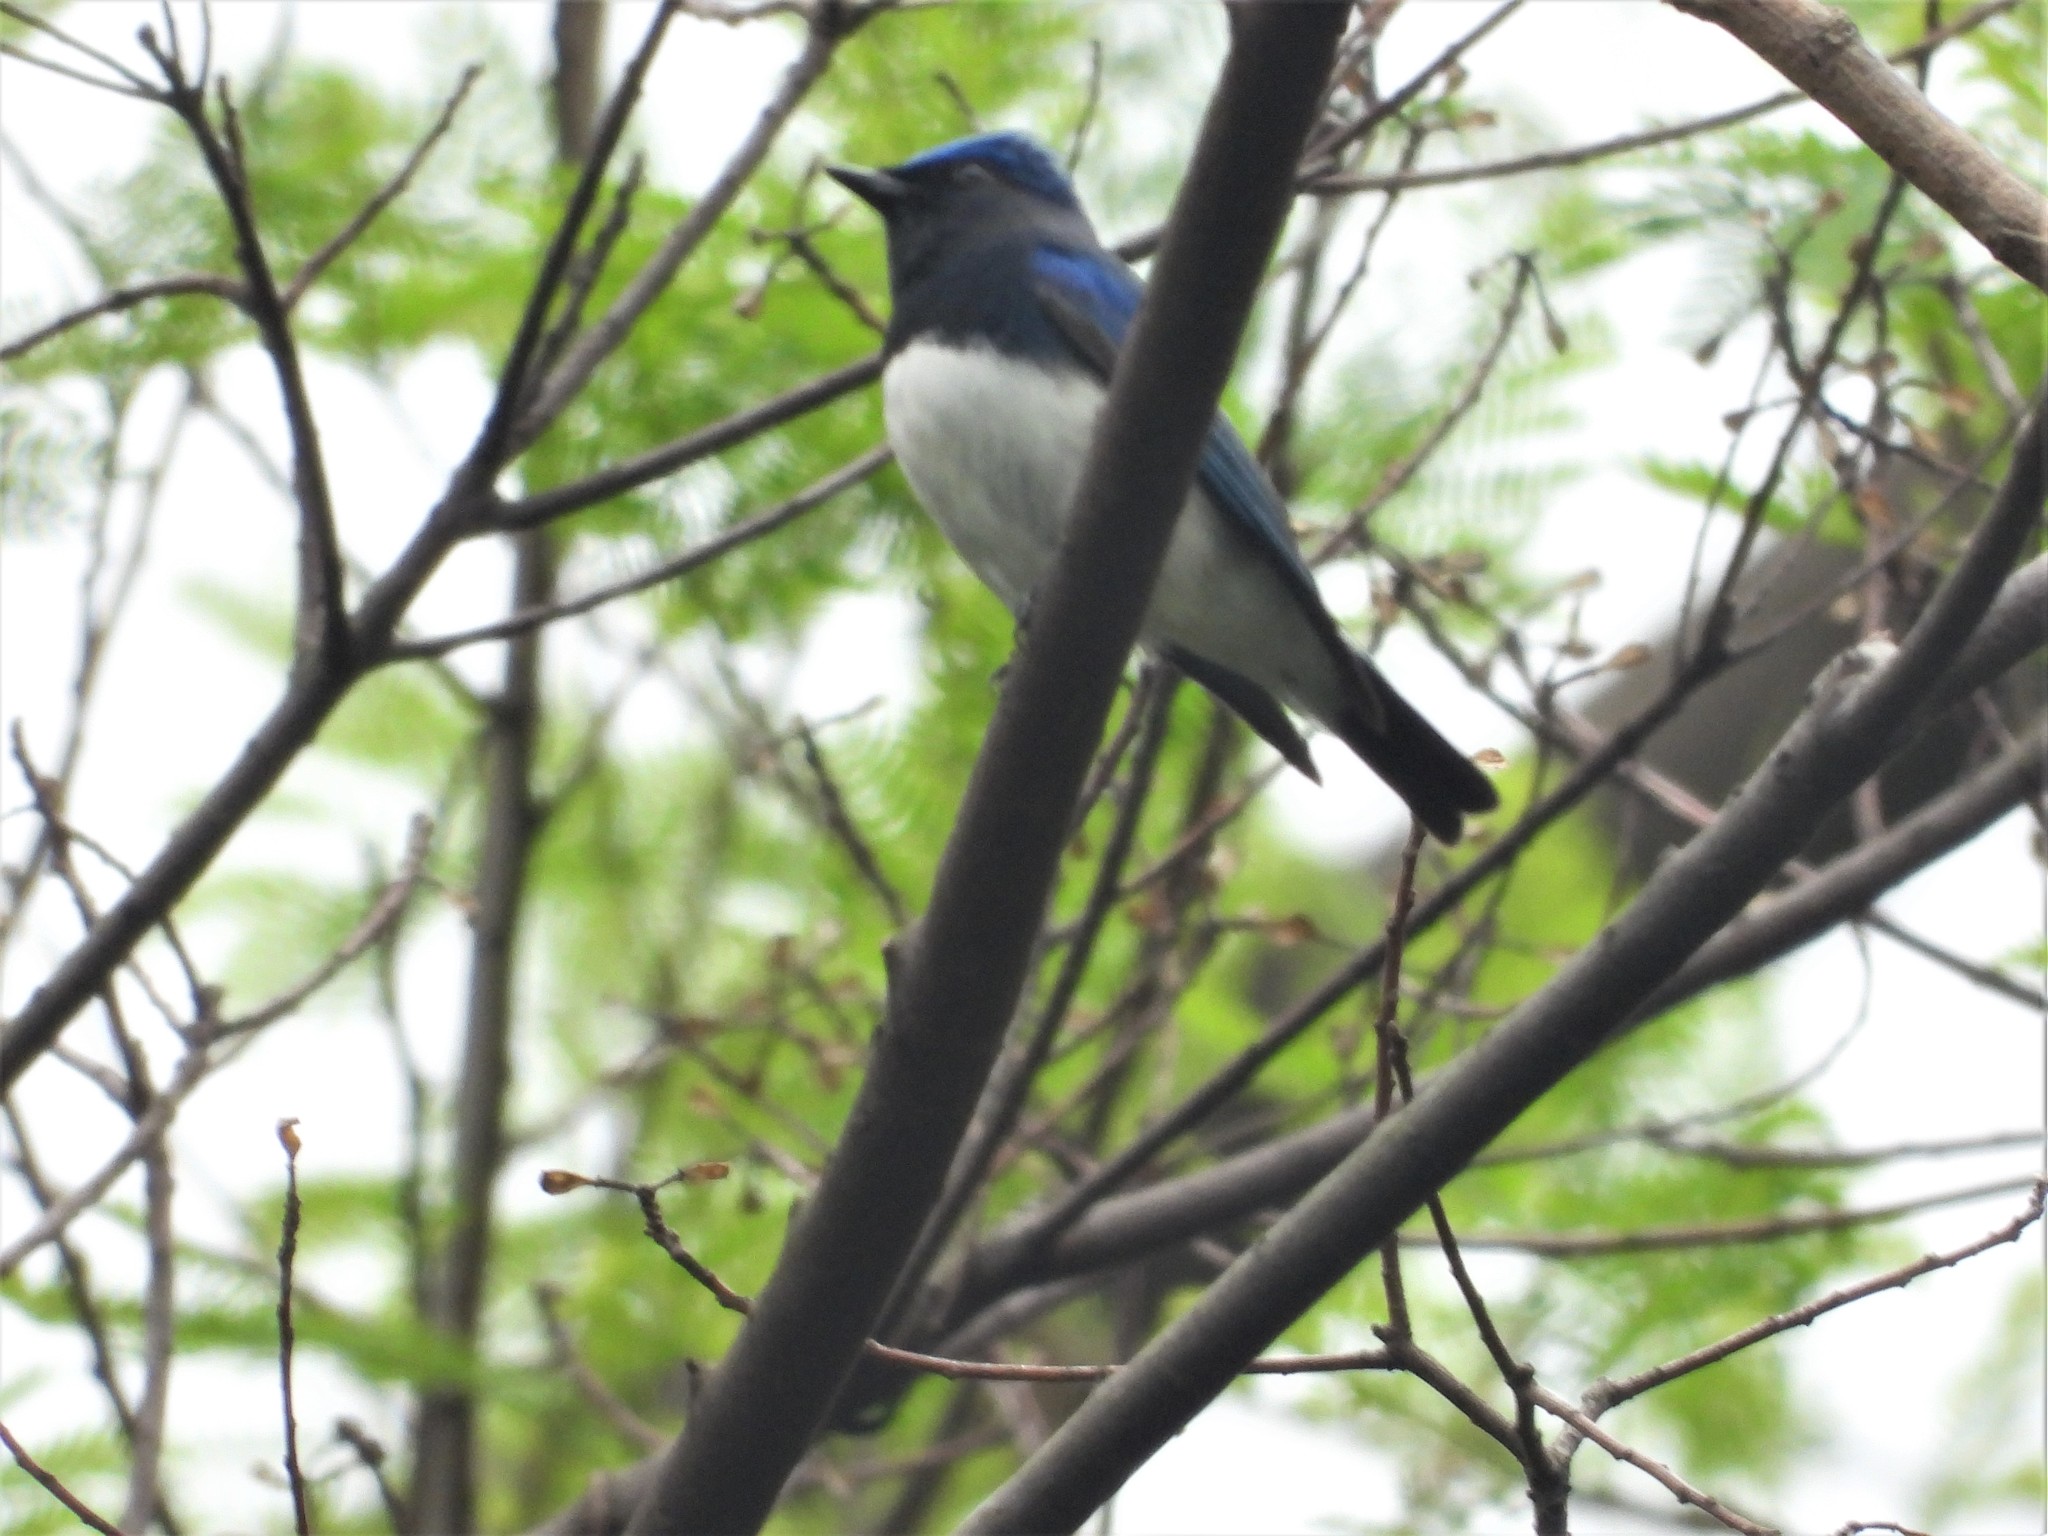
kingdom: Animalia
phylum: Chordata
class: Aves
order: Passeriformes
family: Muscicapidae
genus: Cyanoptila
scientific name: Cyanoptila cyanomelana
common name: Blue-and-white flycatcher
